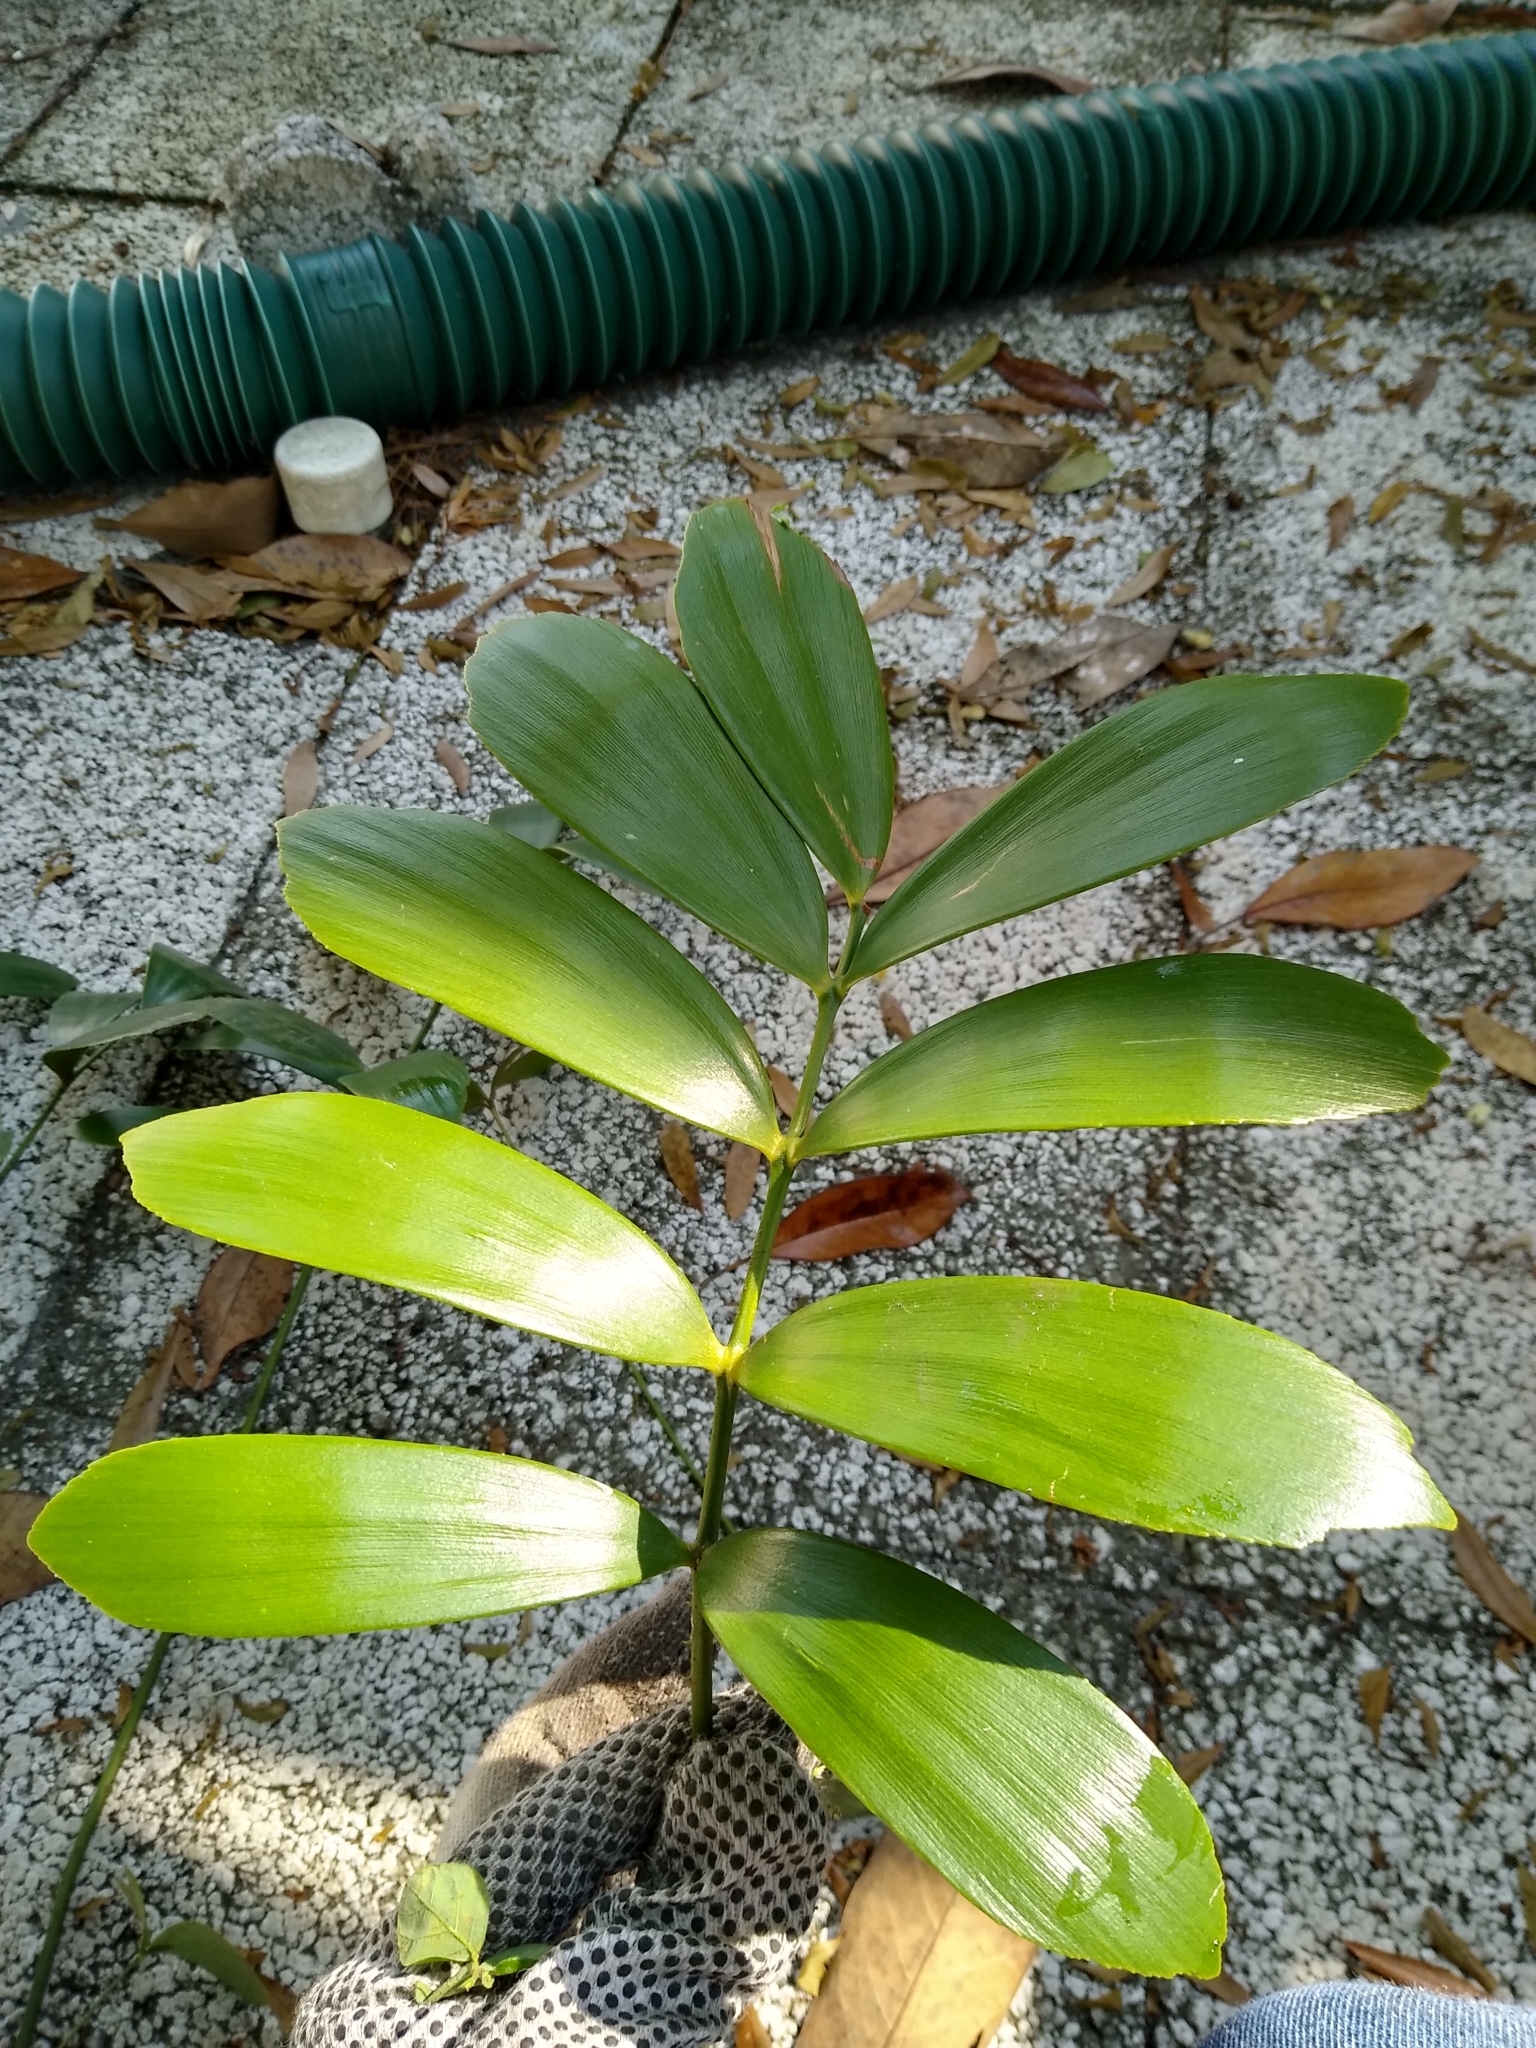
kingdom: Plantae
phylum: Tracheophyta
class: Cycadopsida
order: Cycadales
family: Zamiaceae
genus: Zamia
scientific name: Zamia furfuracea
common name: Cardboard palm
